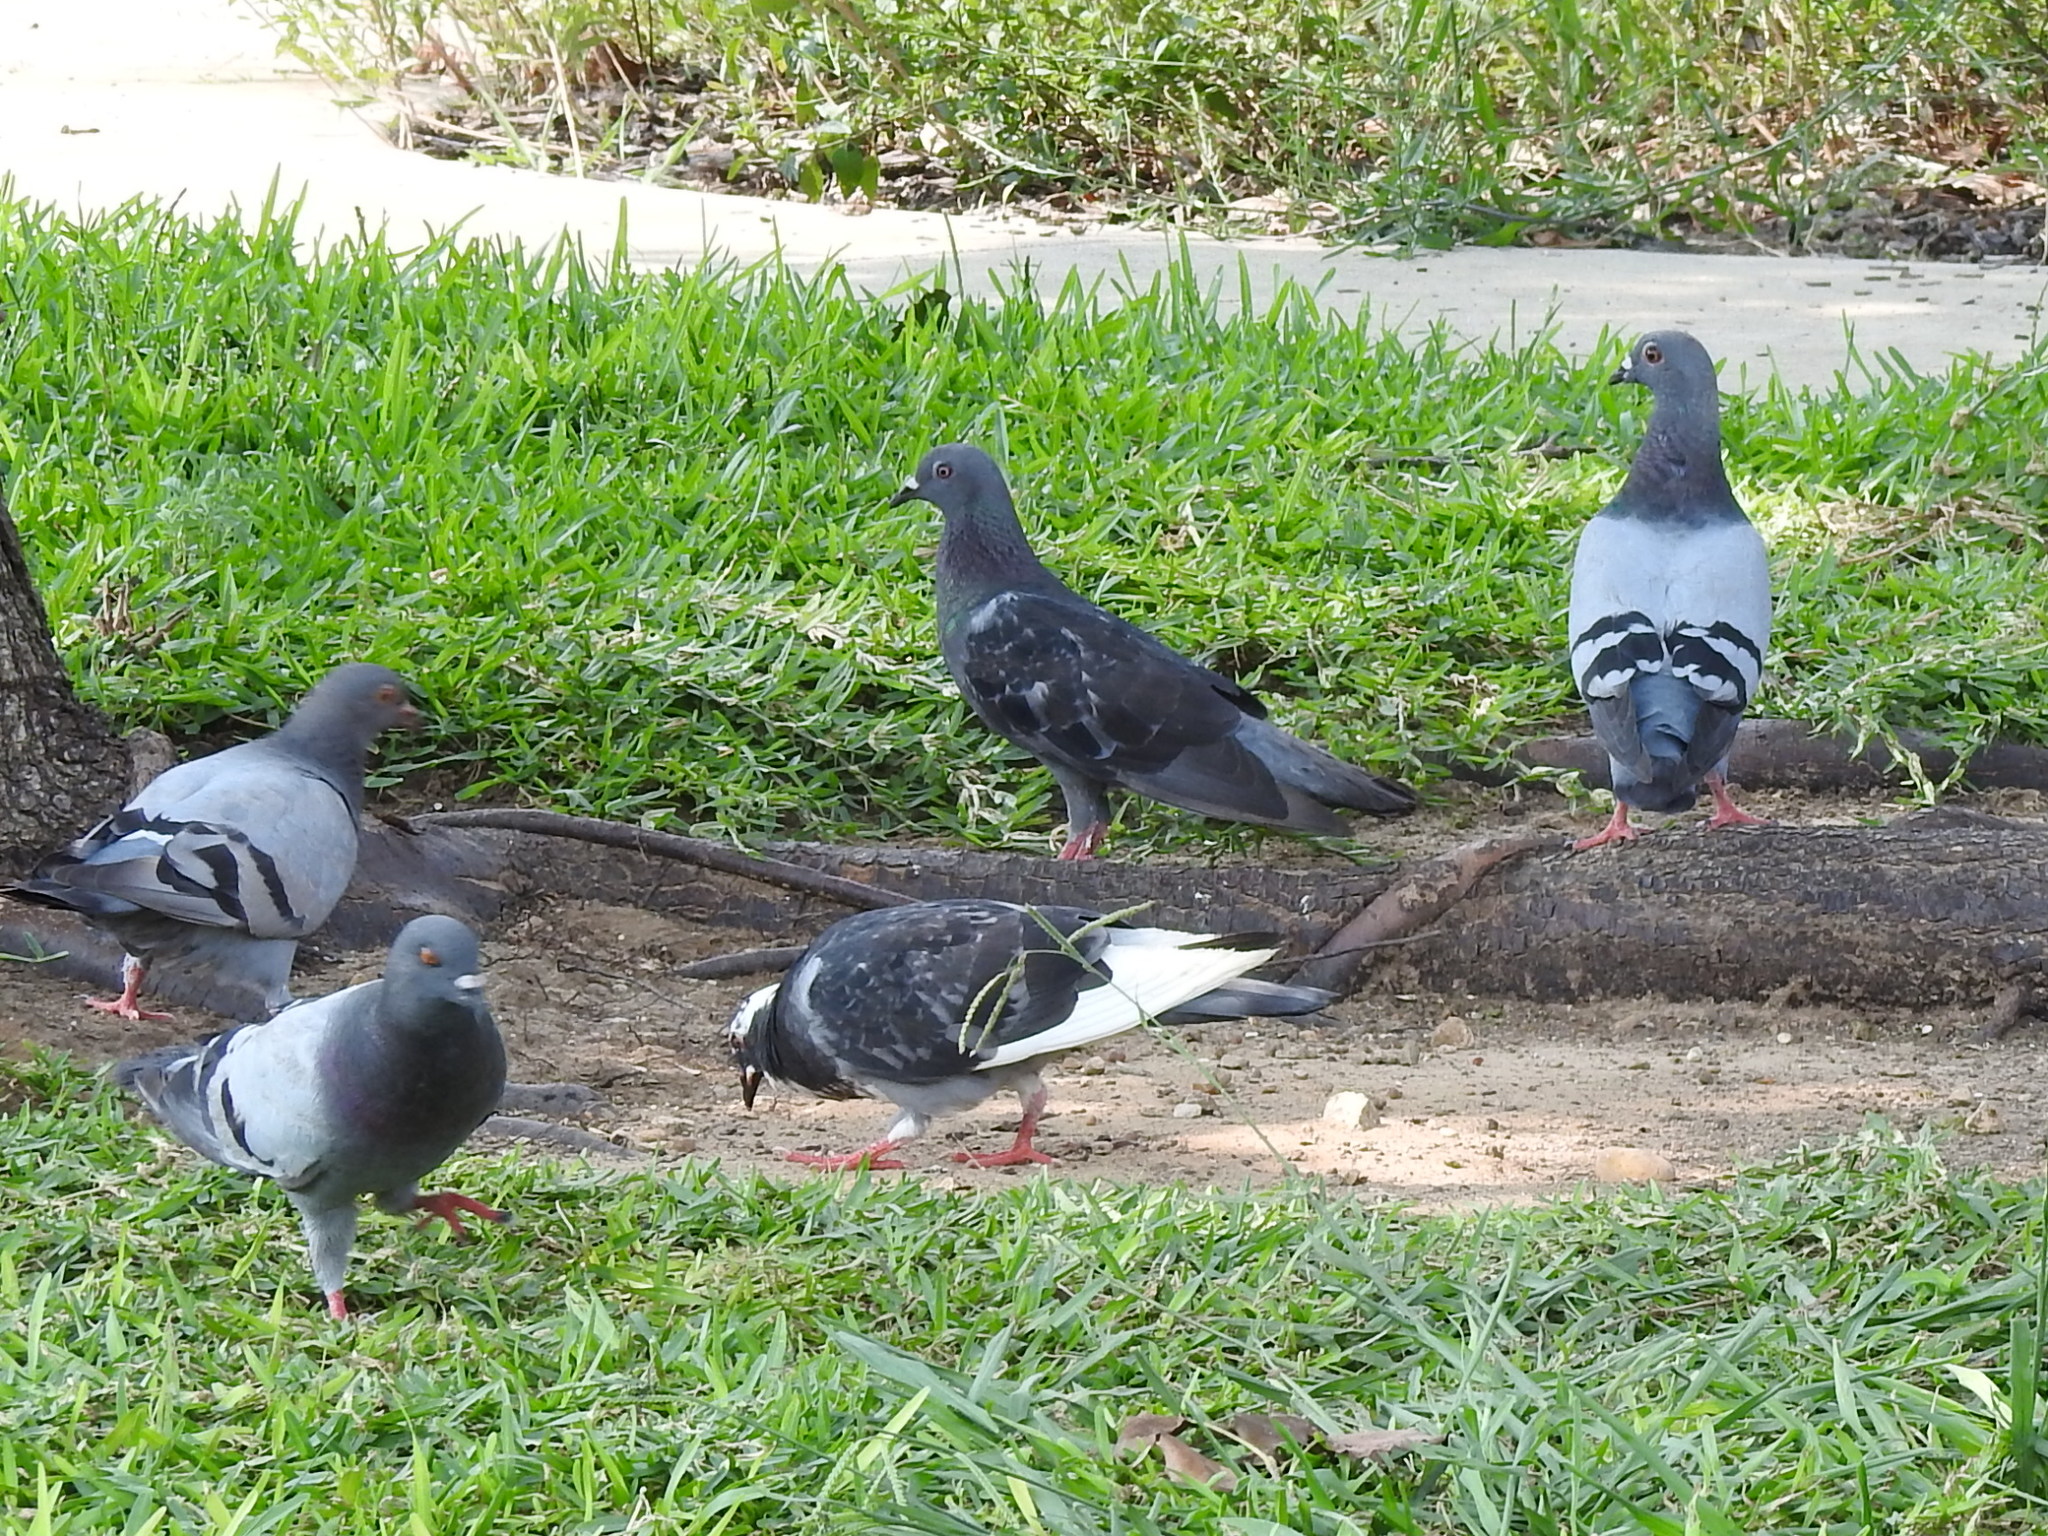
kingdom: Animalia
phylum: Chordata
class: Aves
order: Columbiformes
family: Columbidae
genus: Columba
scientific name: Columba livia
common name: Rock pigeon
